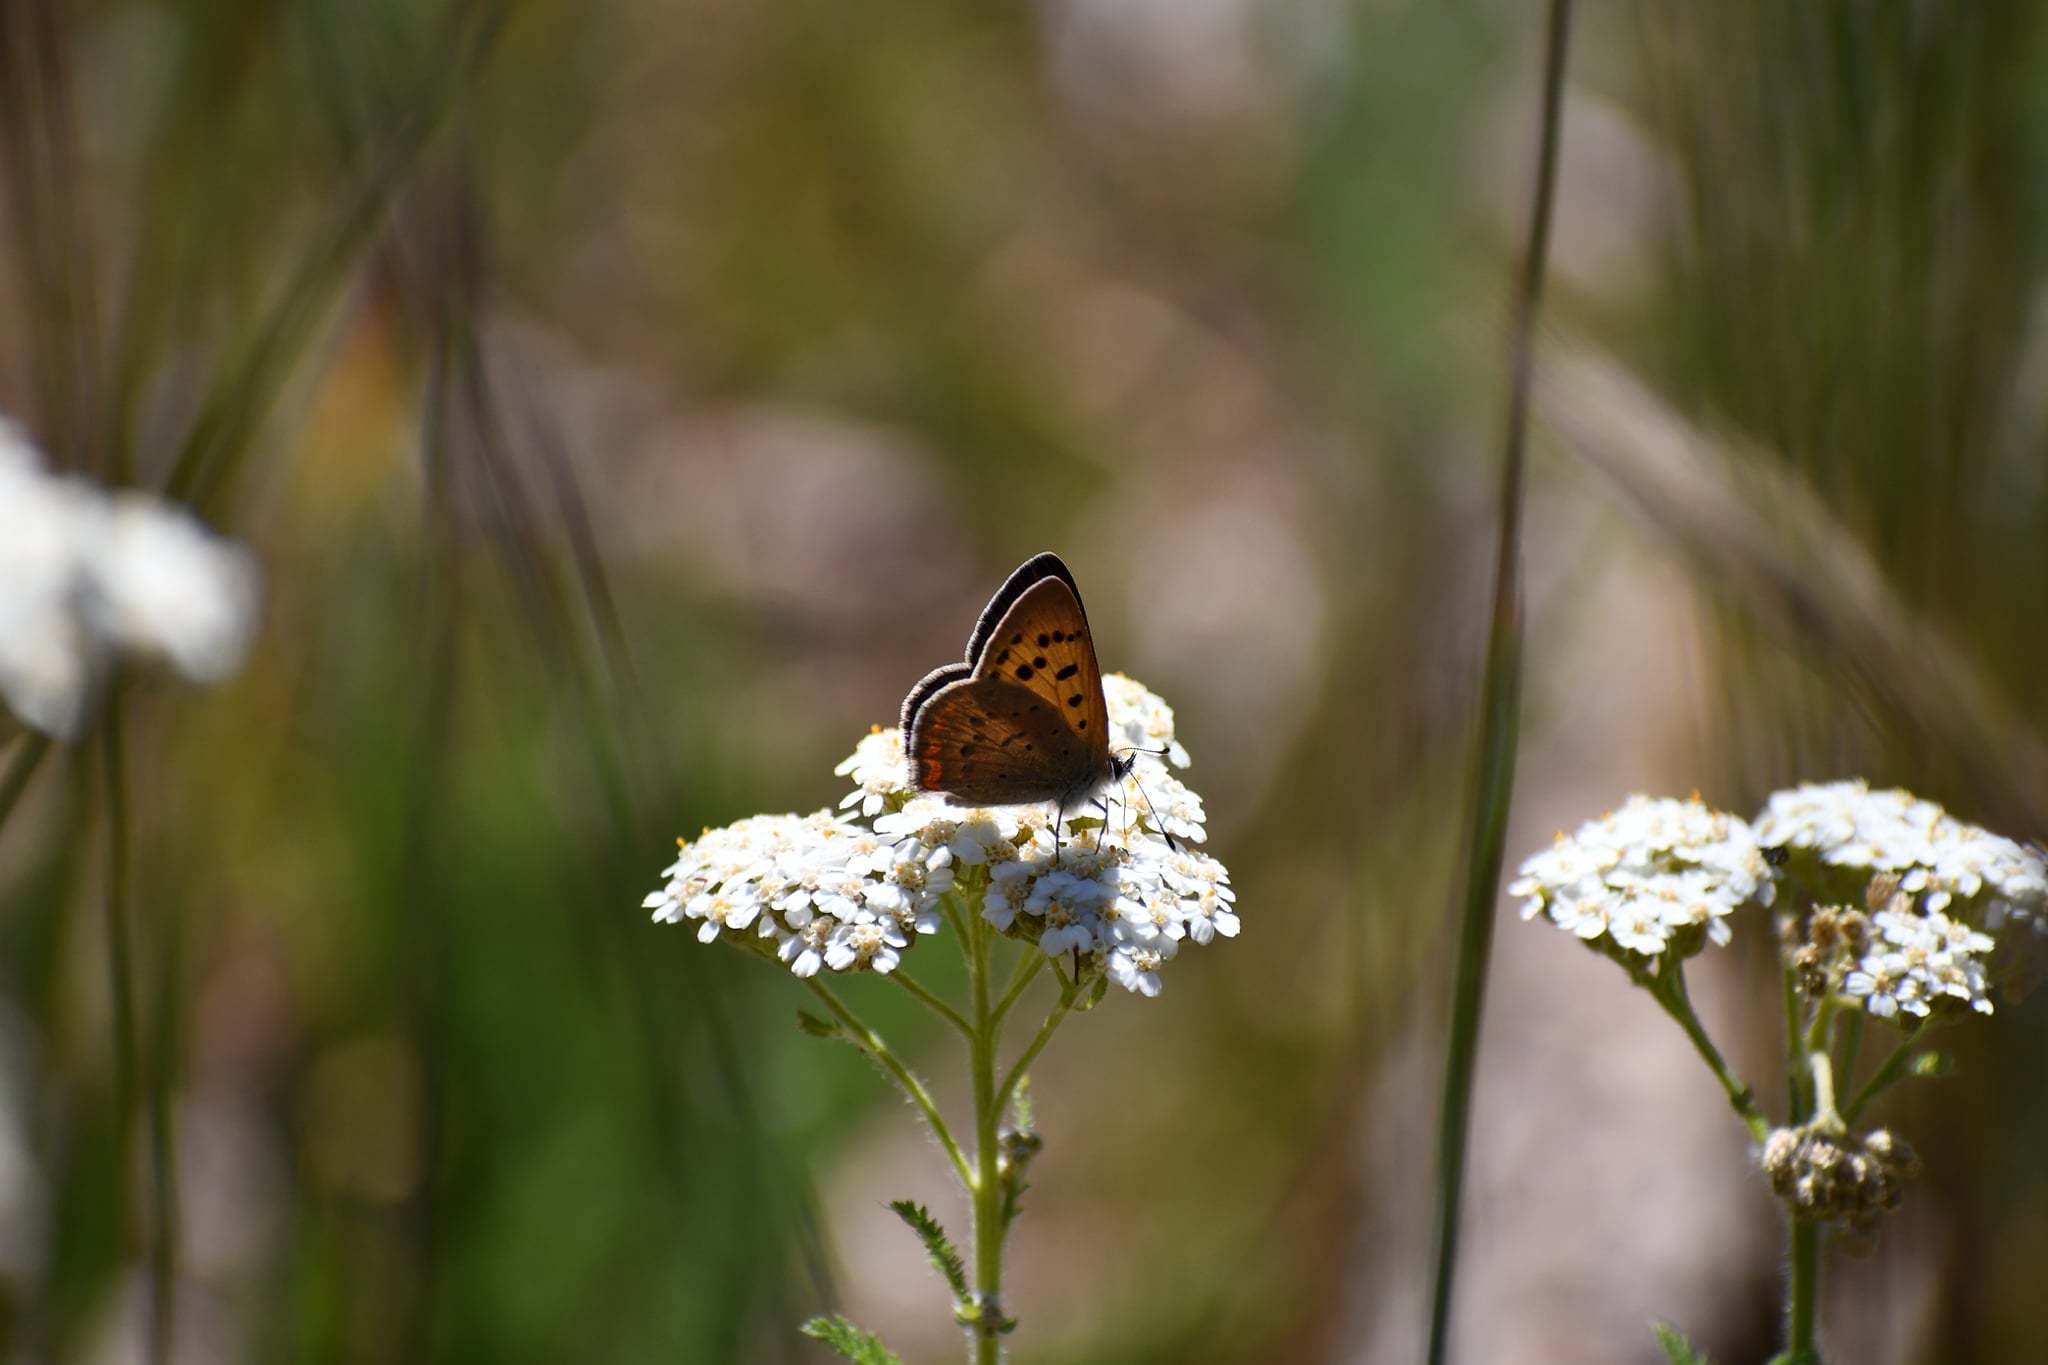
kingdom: Animalia
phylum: Arthropoda
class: Insecta
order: Lepidoptera
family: Lycaenidae
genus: Tharsalea
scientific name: Tharsalea helloides
